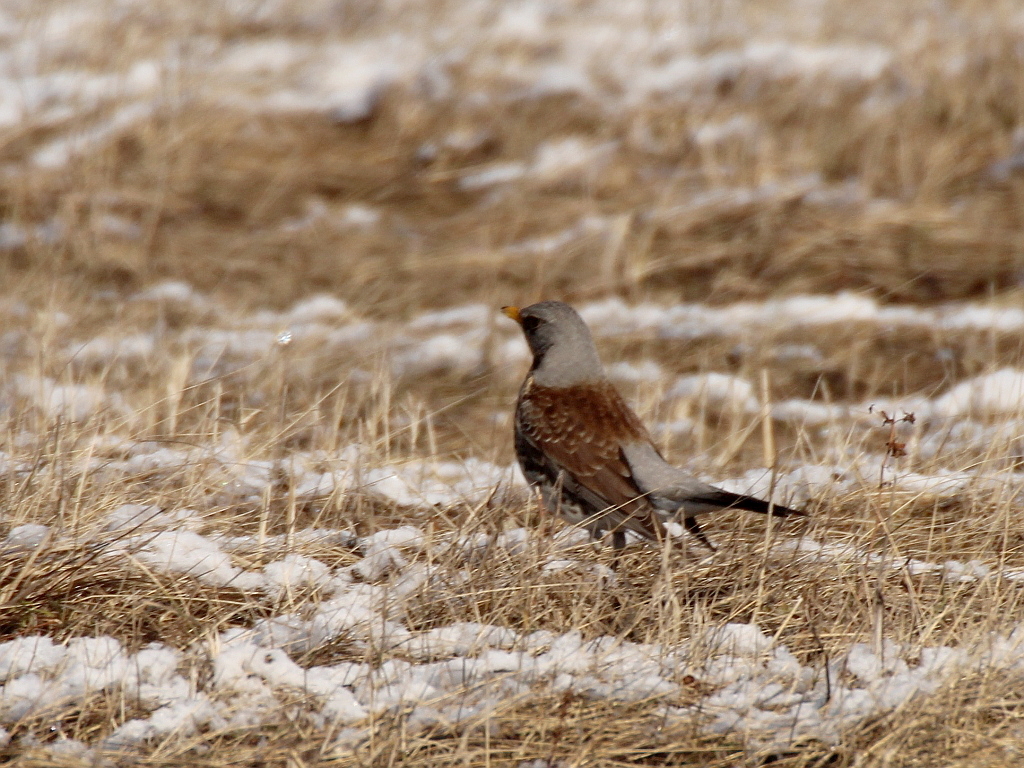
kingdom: Animalia
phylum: Chordata
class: Aves
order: Passeriformes
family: Turdidae
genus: Turdus
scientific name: Turdus pilaris
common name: Fieldfare
